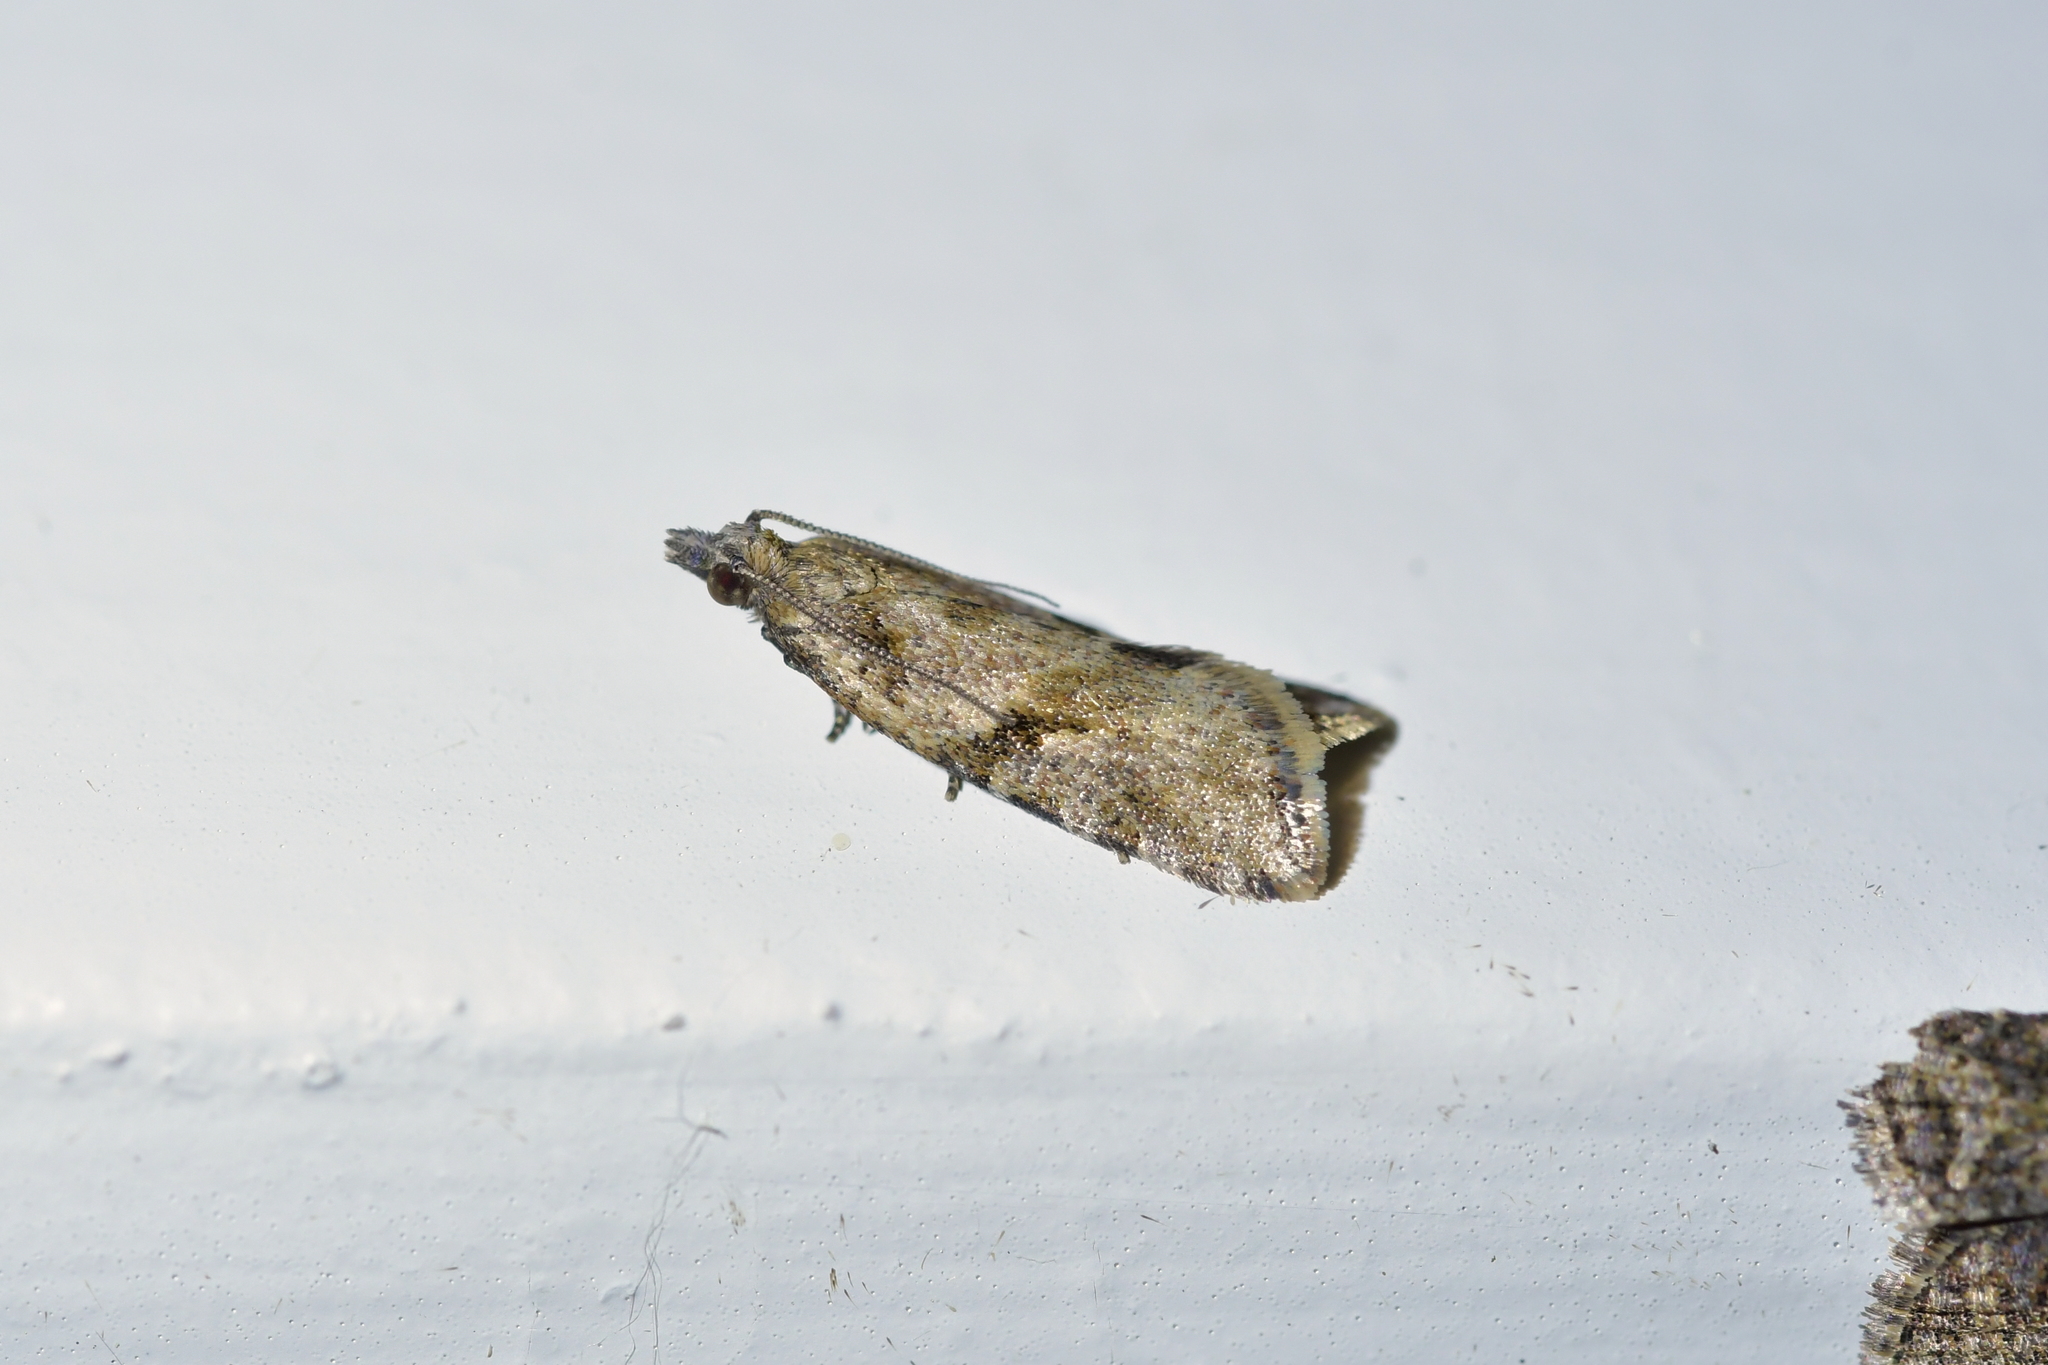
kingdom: Animalia
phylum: Arthropoda
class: Insecta
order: Lepidoptera
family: Tortricidae
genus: Capua
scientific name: Capua semiferana
